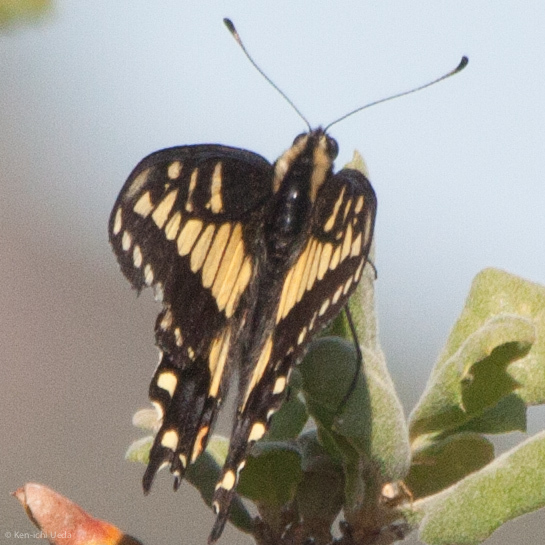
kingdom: Animalia
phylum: Arthropoda
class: Insecta
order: Lepidoptera
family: Papilionidae
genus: Papilio
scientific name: Papilio zelicaon
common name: Anise swallowtail
